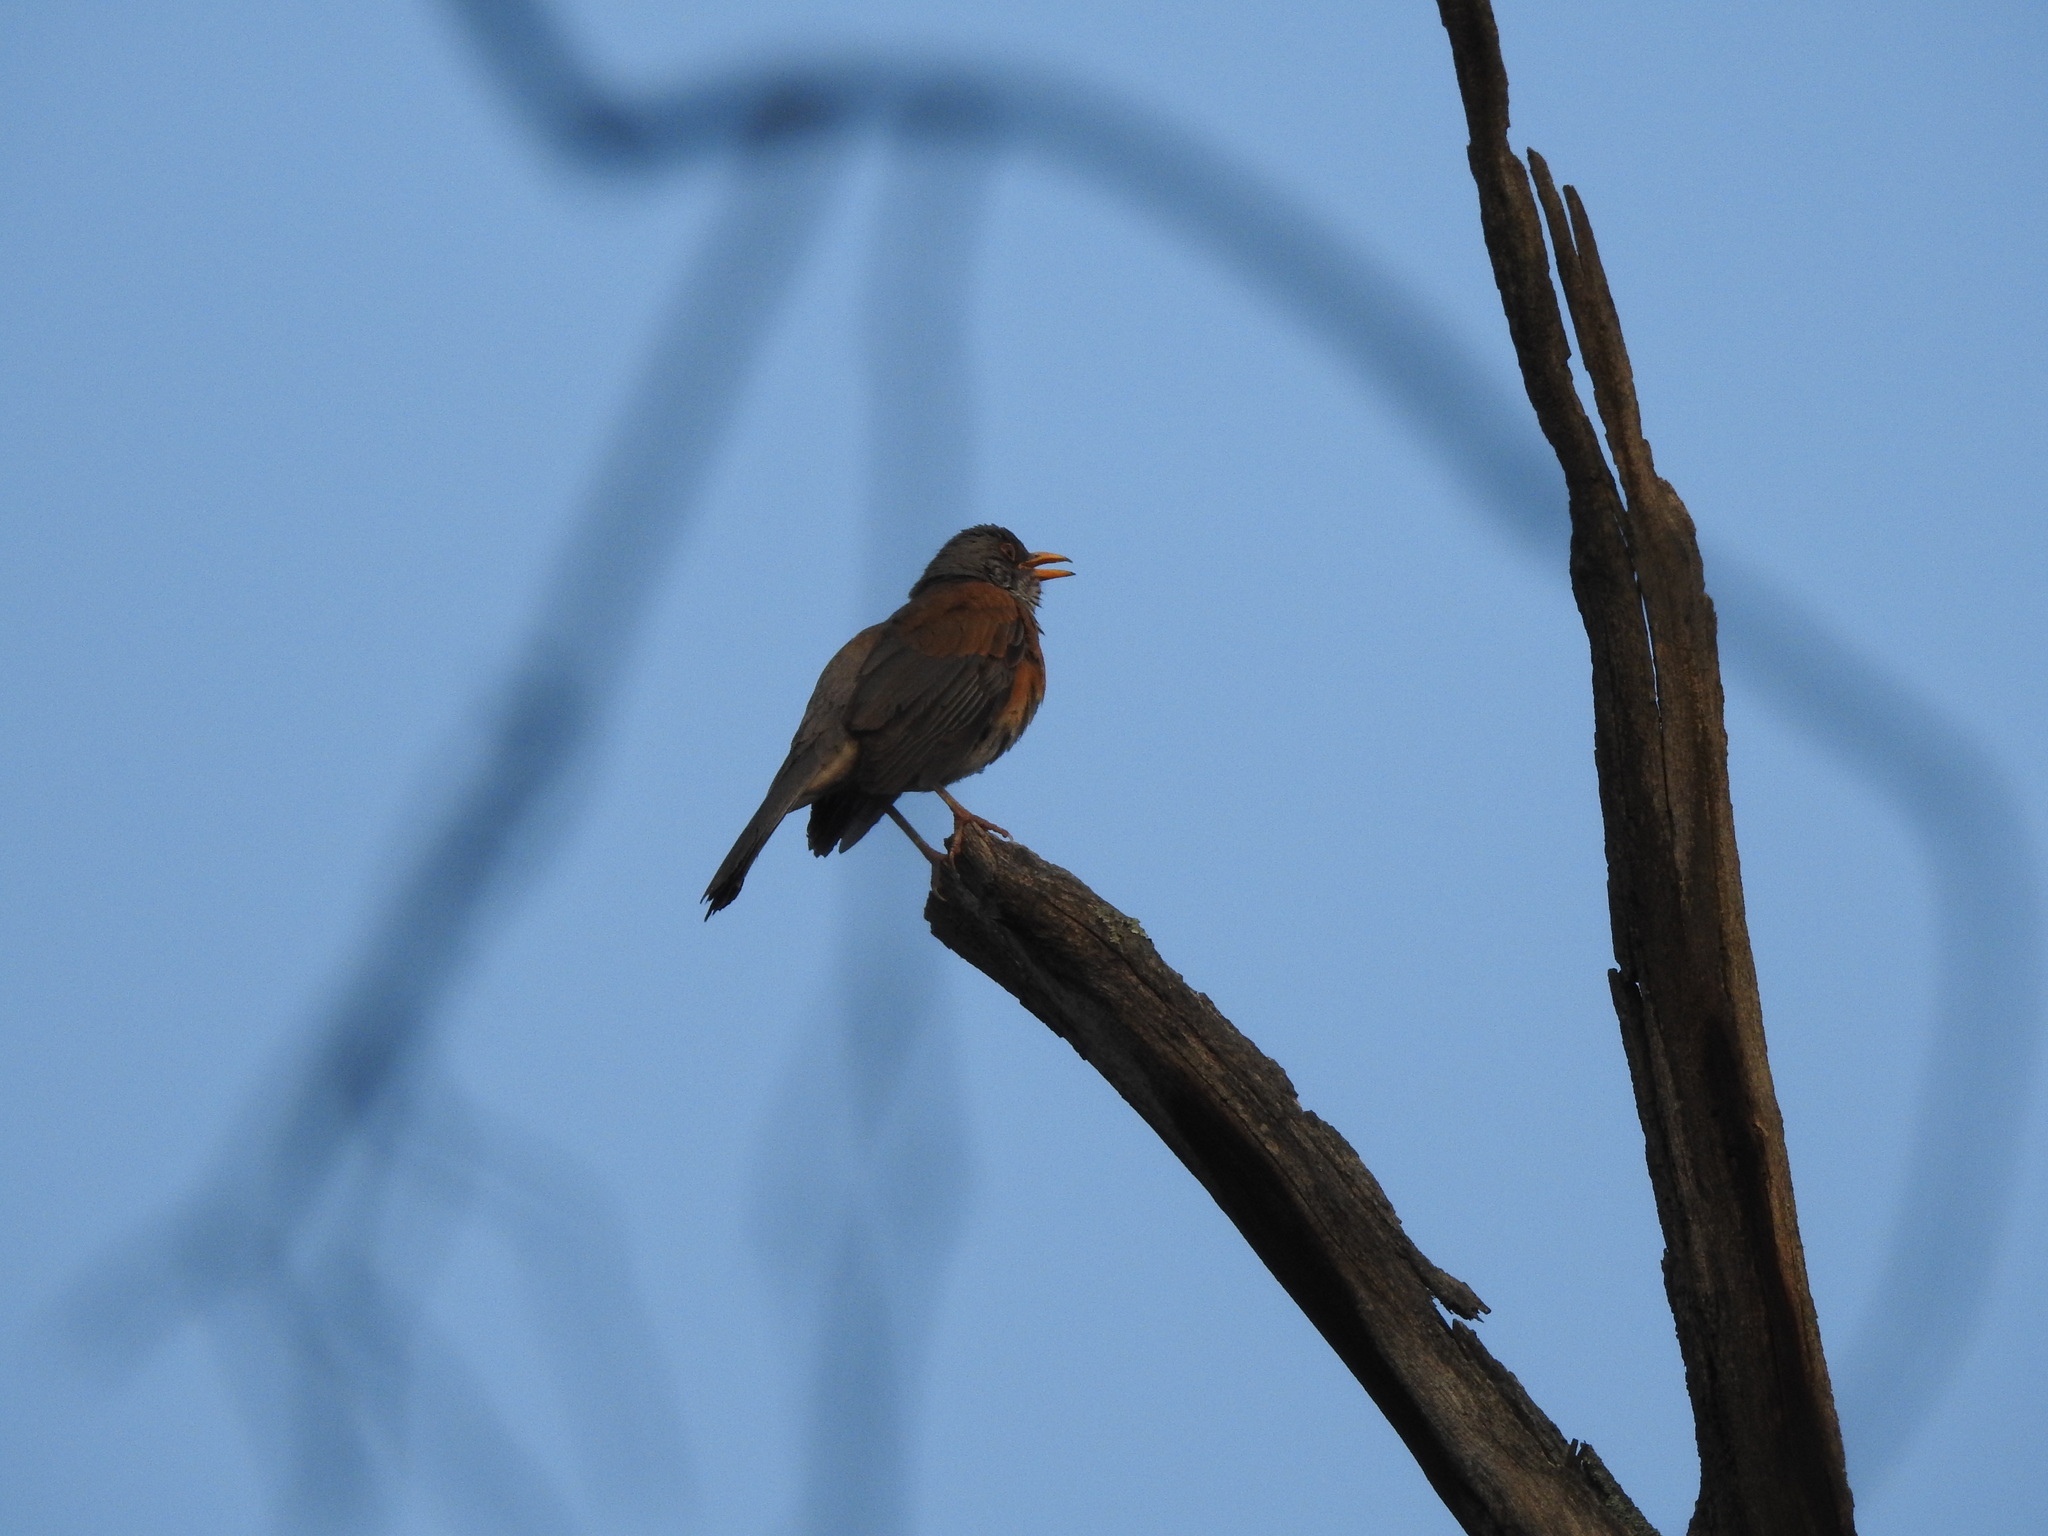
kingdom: Animalia
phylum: Chordata
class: Aves
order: Passeriformes
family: Turdidae
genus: Turdus
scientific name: Turdus rufopalliatus
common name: Rufous-backed robin
